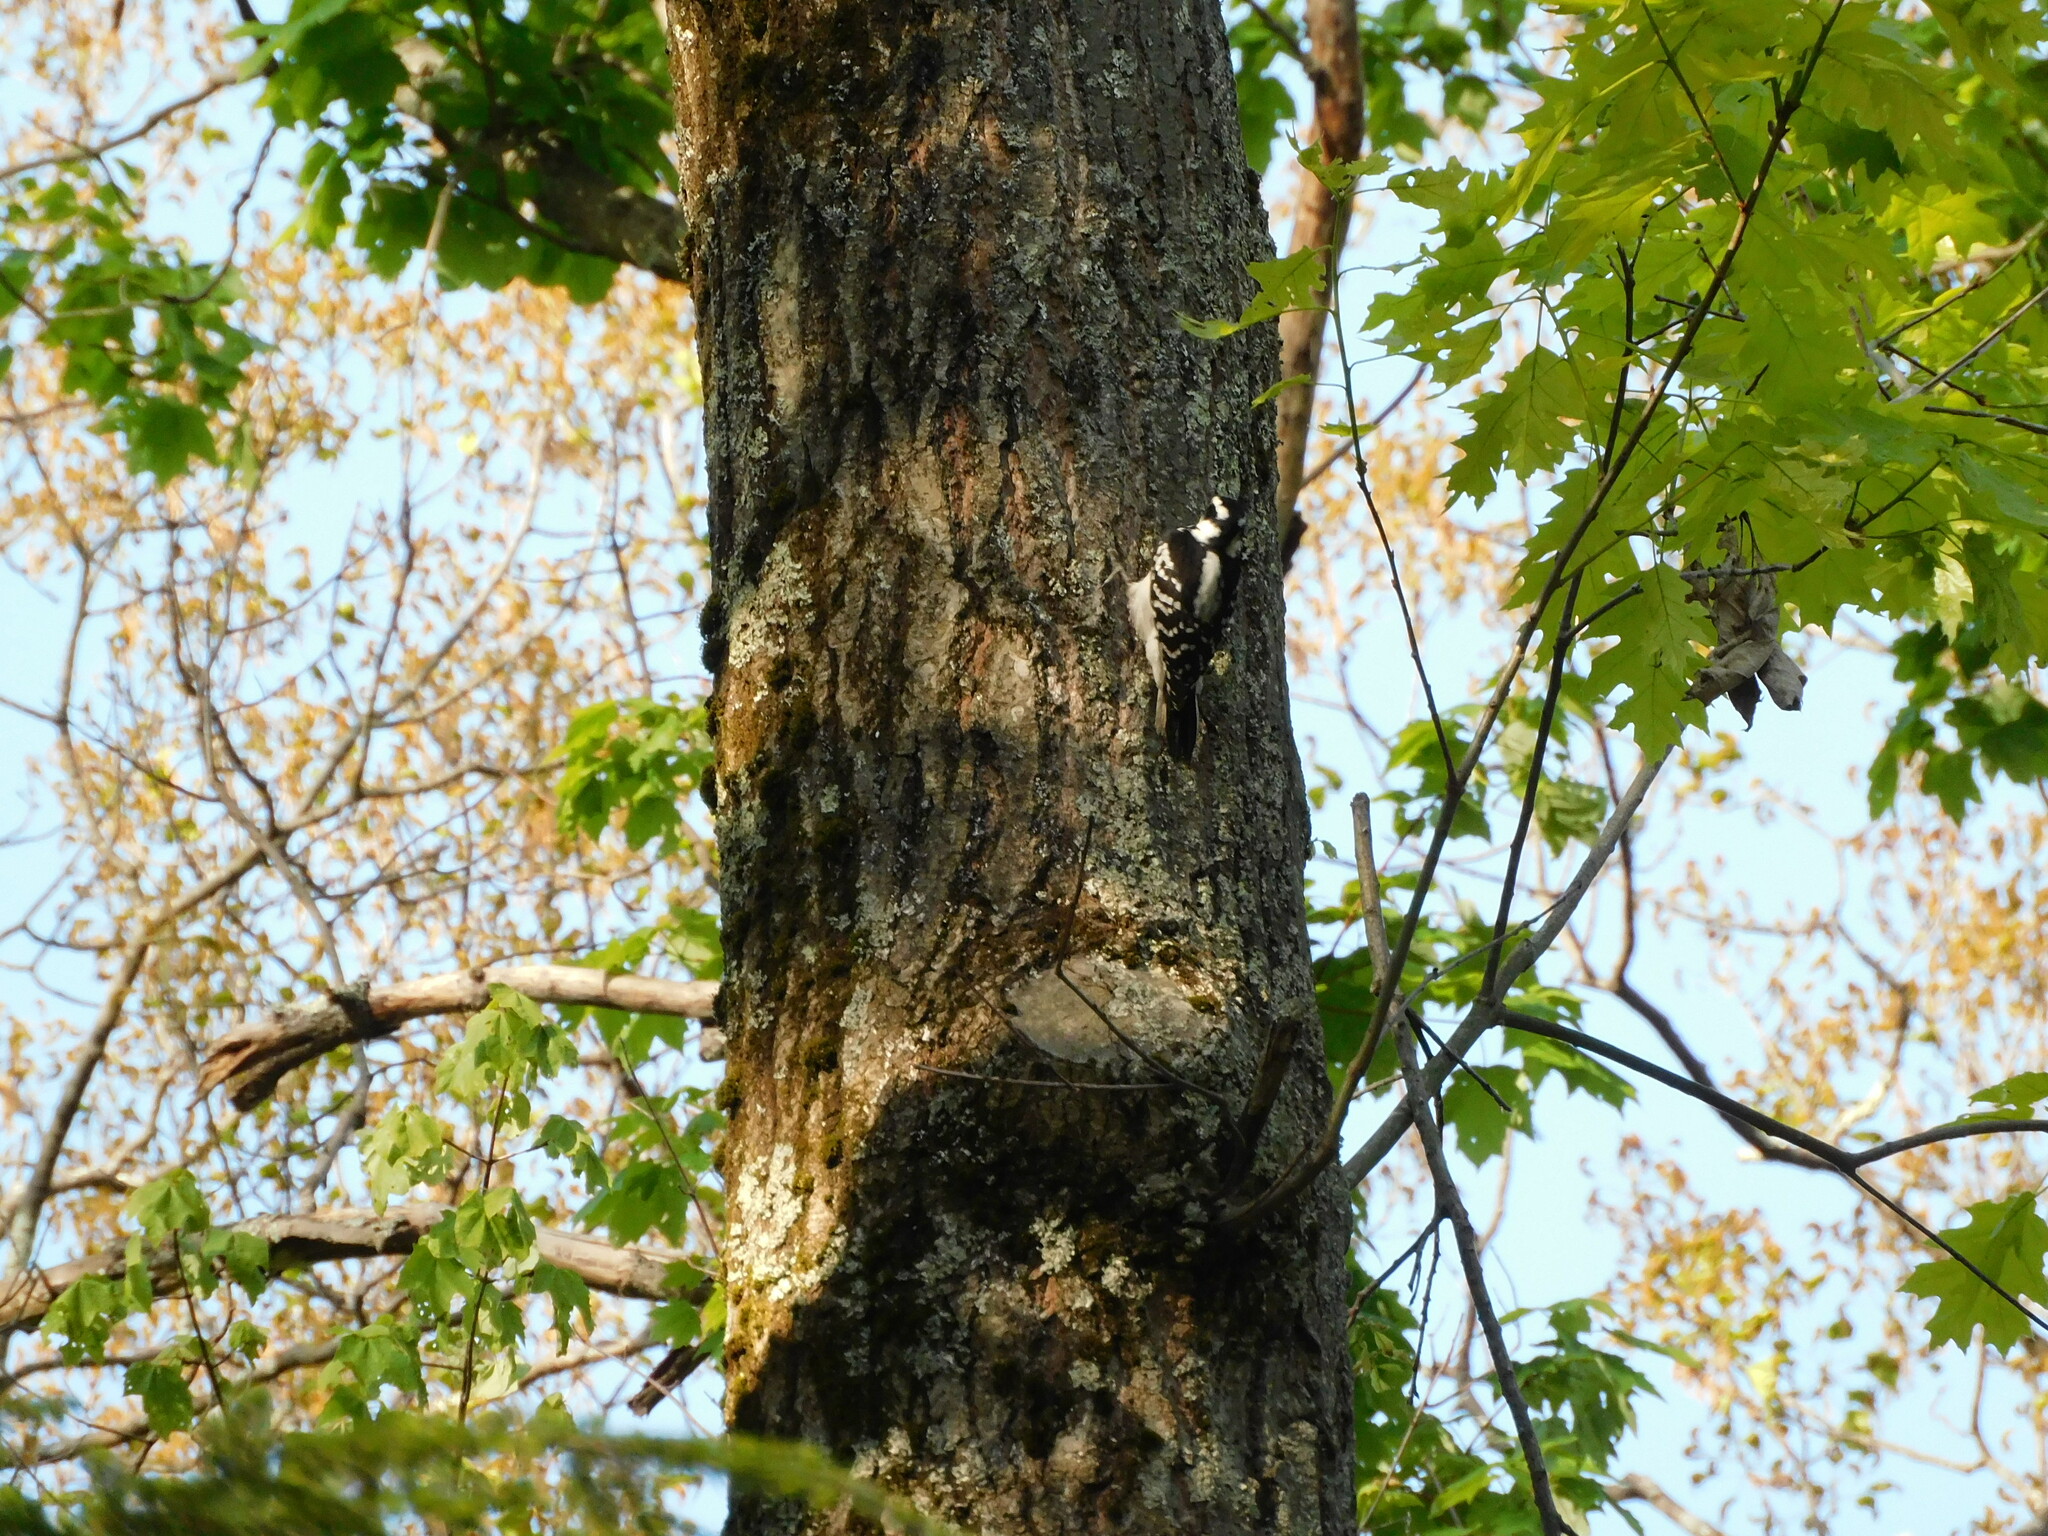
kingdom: Animalia
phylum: Chordata
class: Aves
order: Piciformes
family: Picidae
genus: Dryobates
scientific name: Dryobates pubescens
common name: Downy woodpecker
